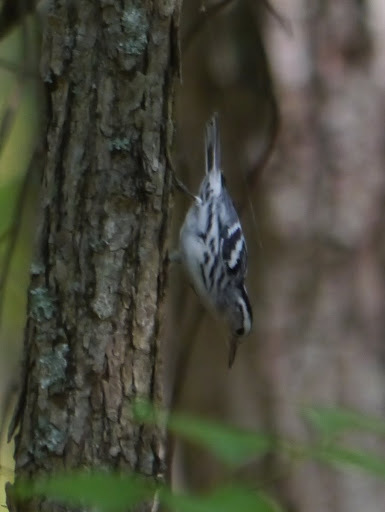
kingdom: Animalia
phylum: Chordata
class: Aves
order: Passeriformes
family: Parulidae
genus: Mniotilta
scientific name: Mniotilta varia
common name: Black-and-white warbler
